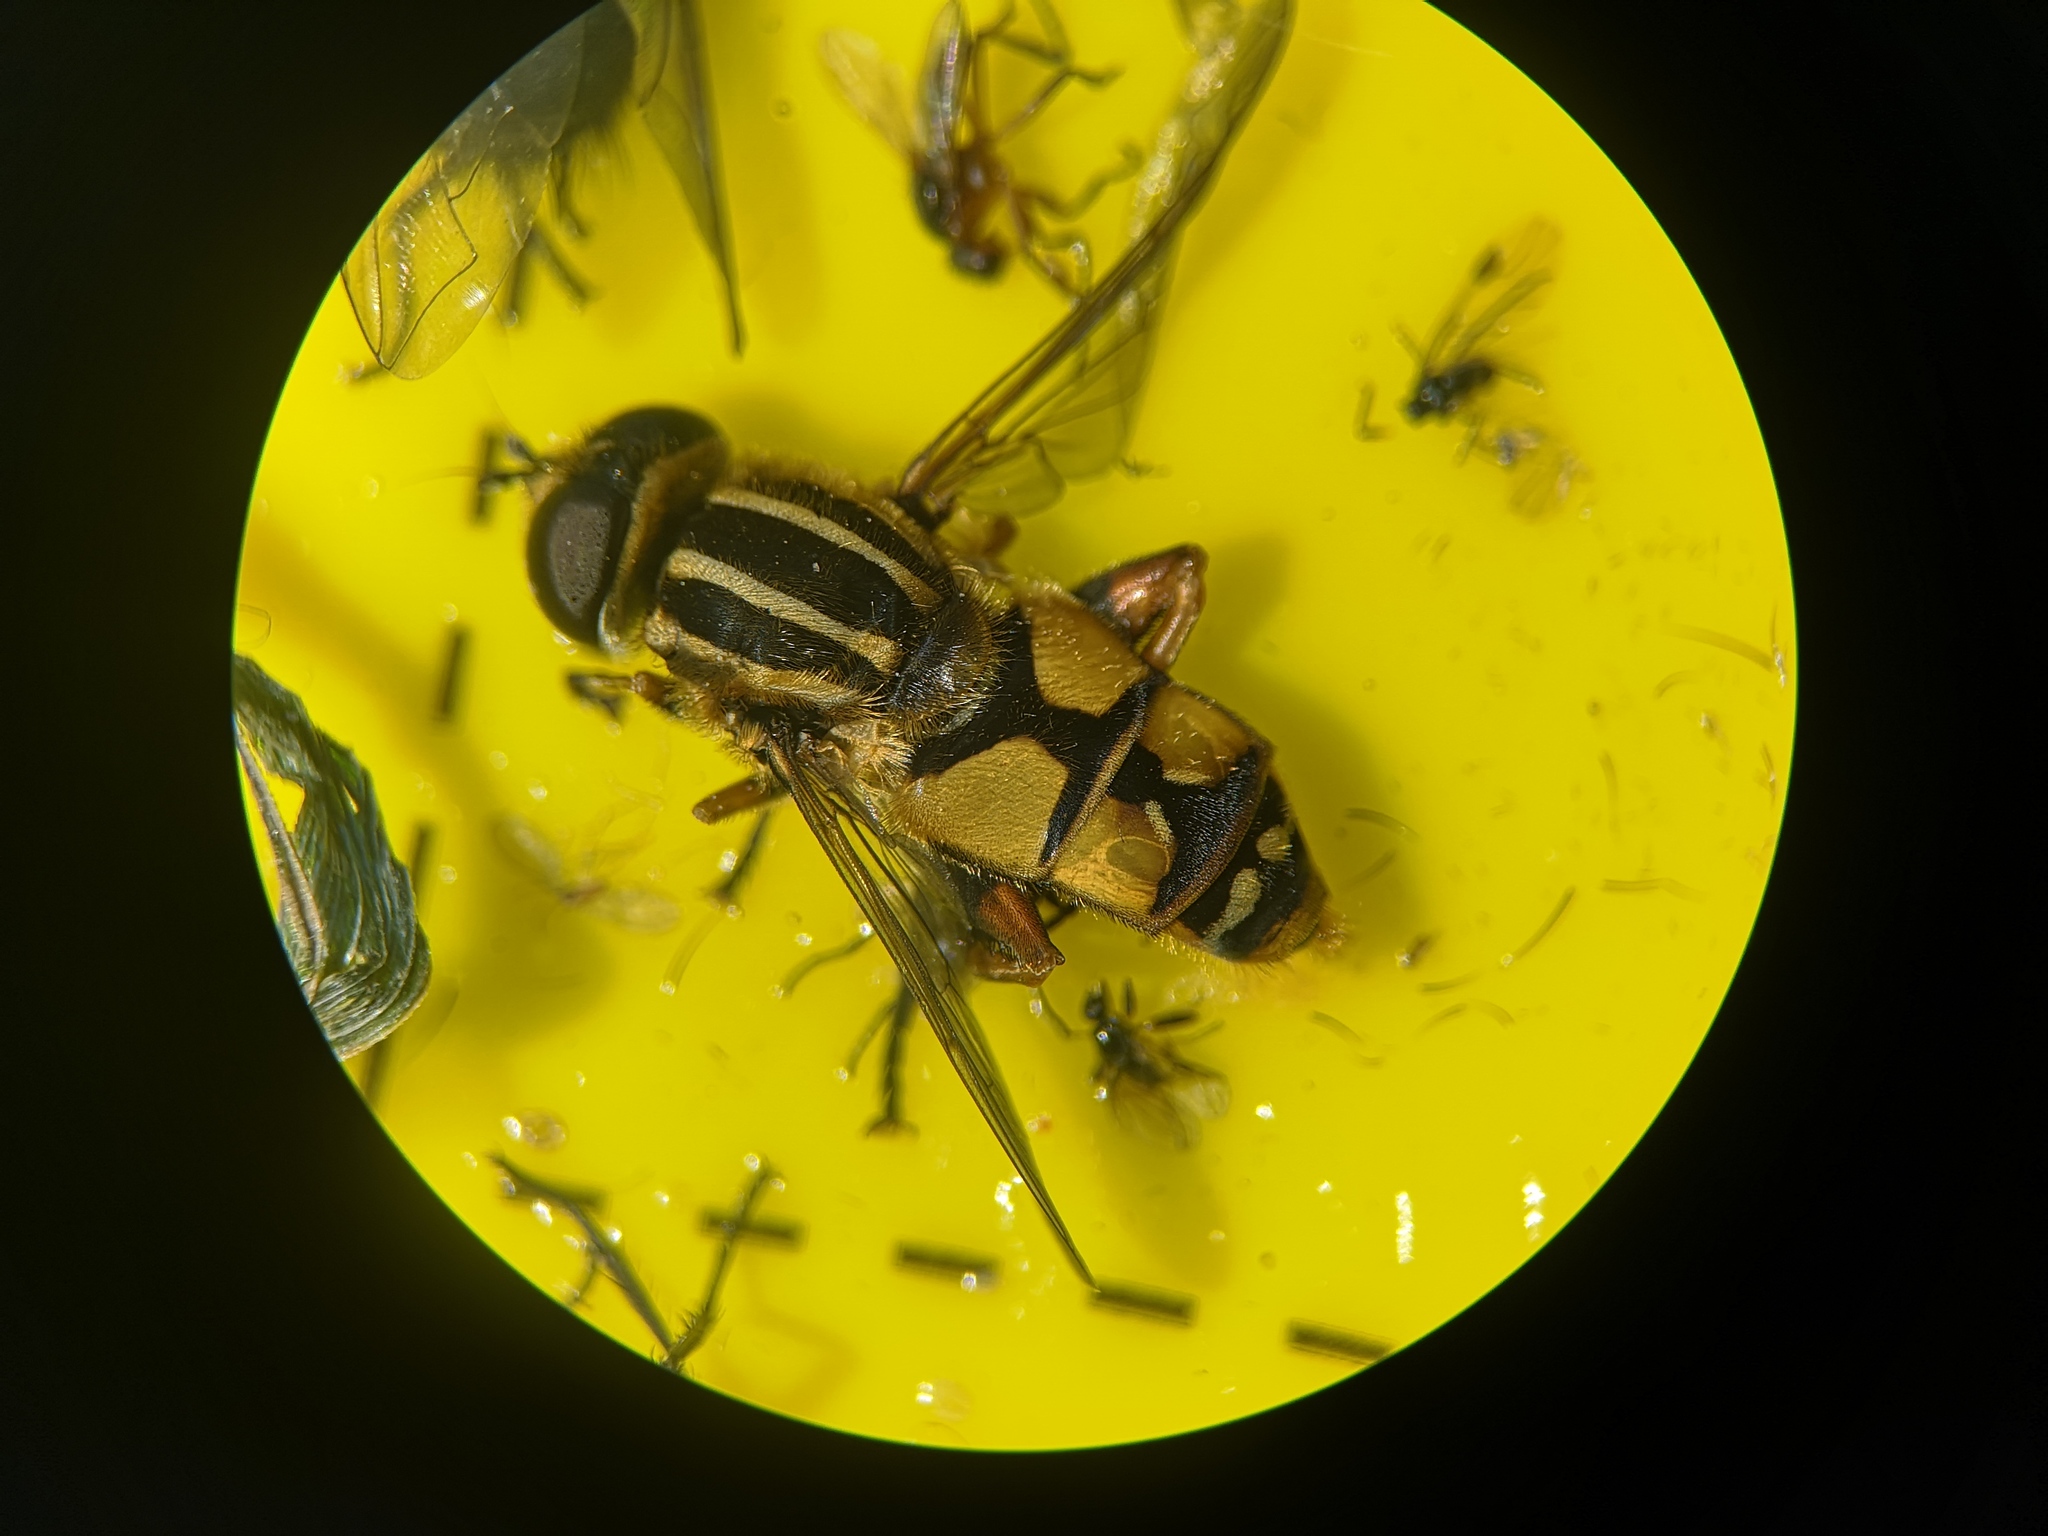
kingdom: Animalia
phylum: Arthropoda
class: Insecta
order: Diptera
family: Syrphidae
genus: Helophilus
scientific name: Helophilus pendulus
